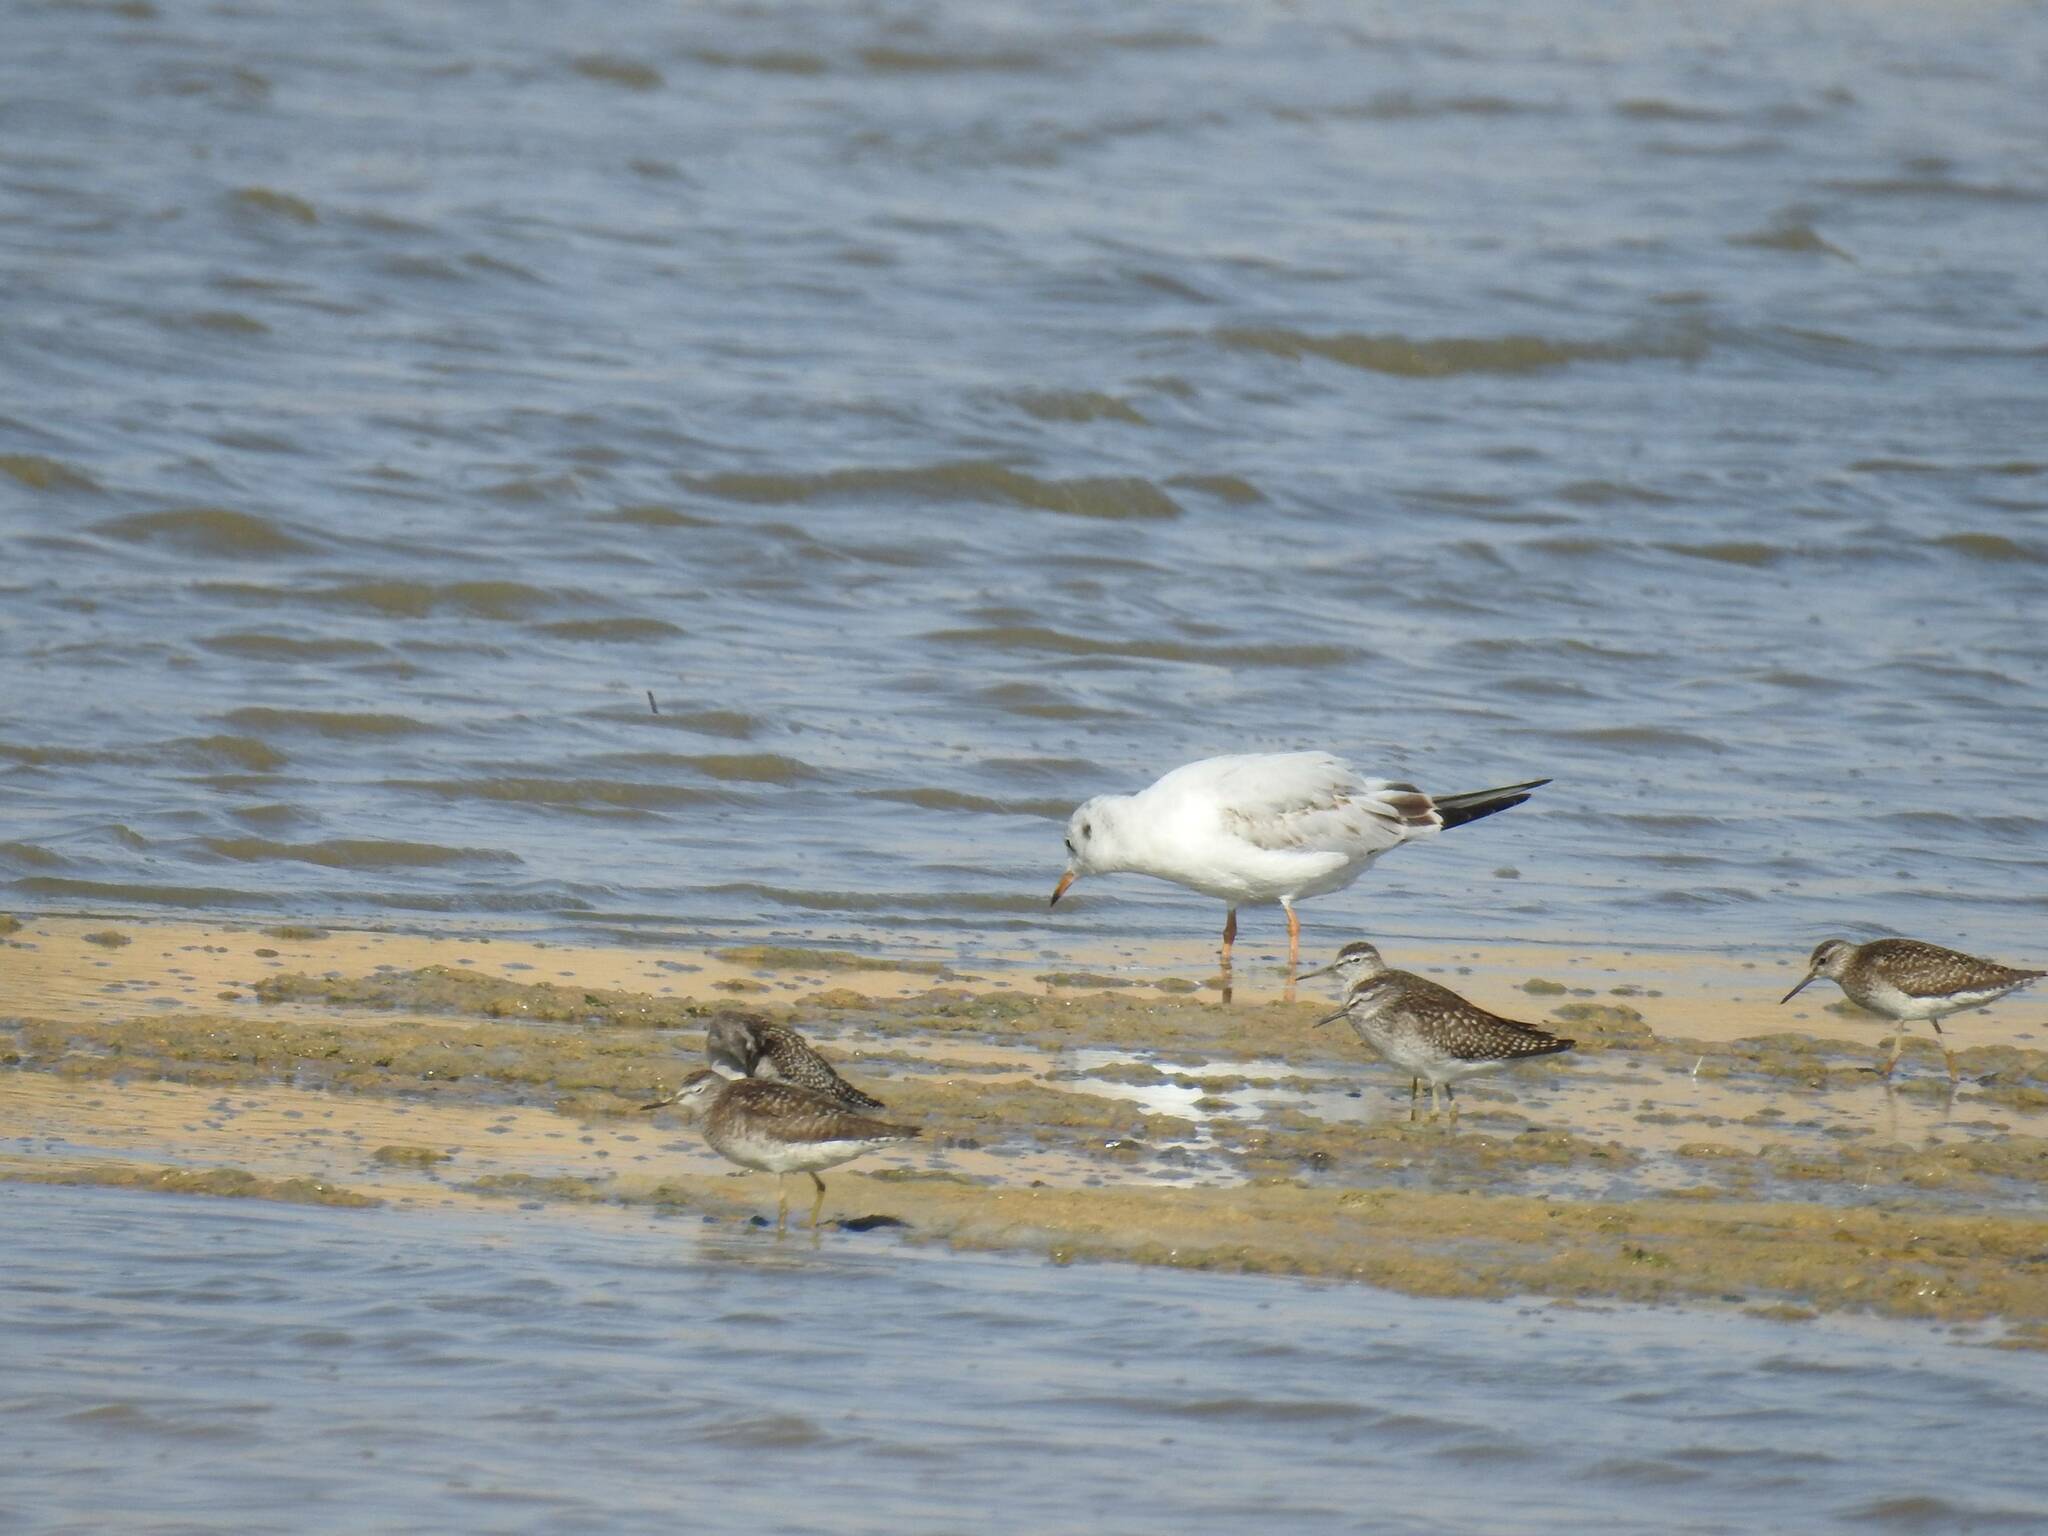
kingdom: Animalia
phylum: Chordata
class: Aves
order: Charadriiformes
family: Scolopacidae
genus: Tringa
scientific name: Tringa glareola
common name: Wood sandpiper
